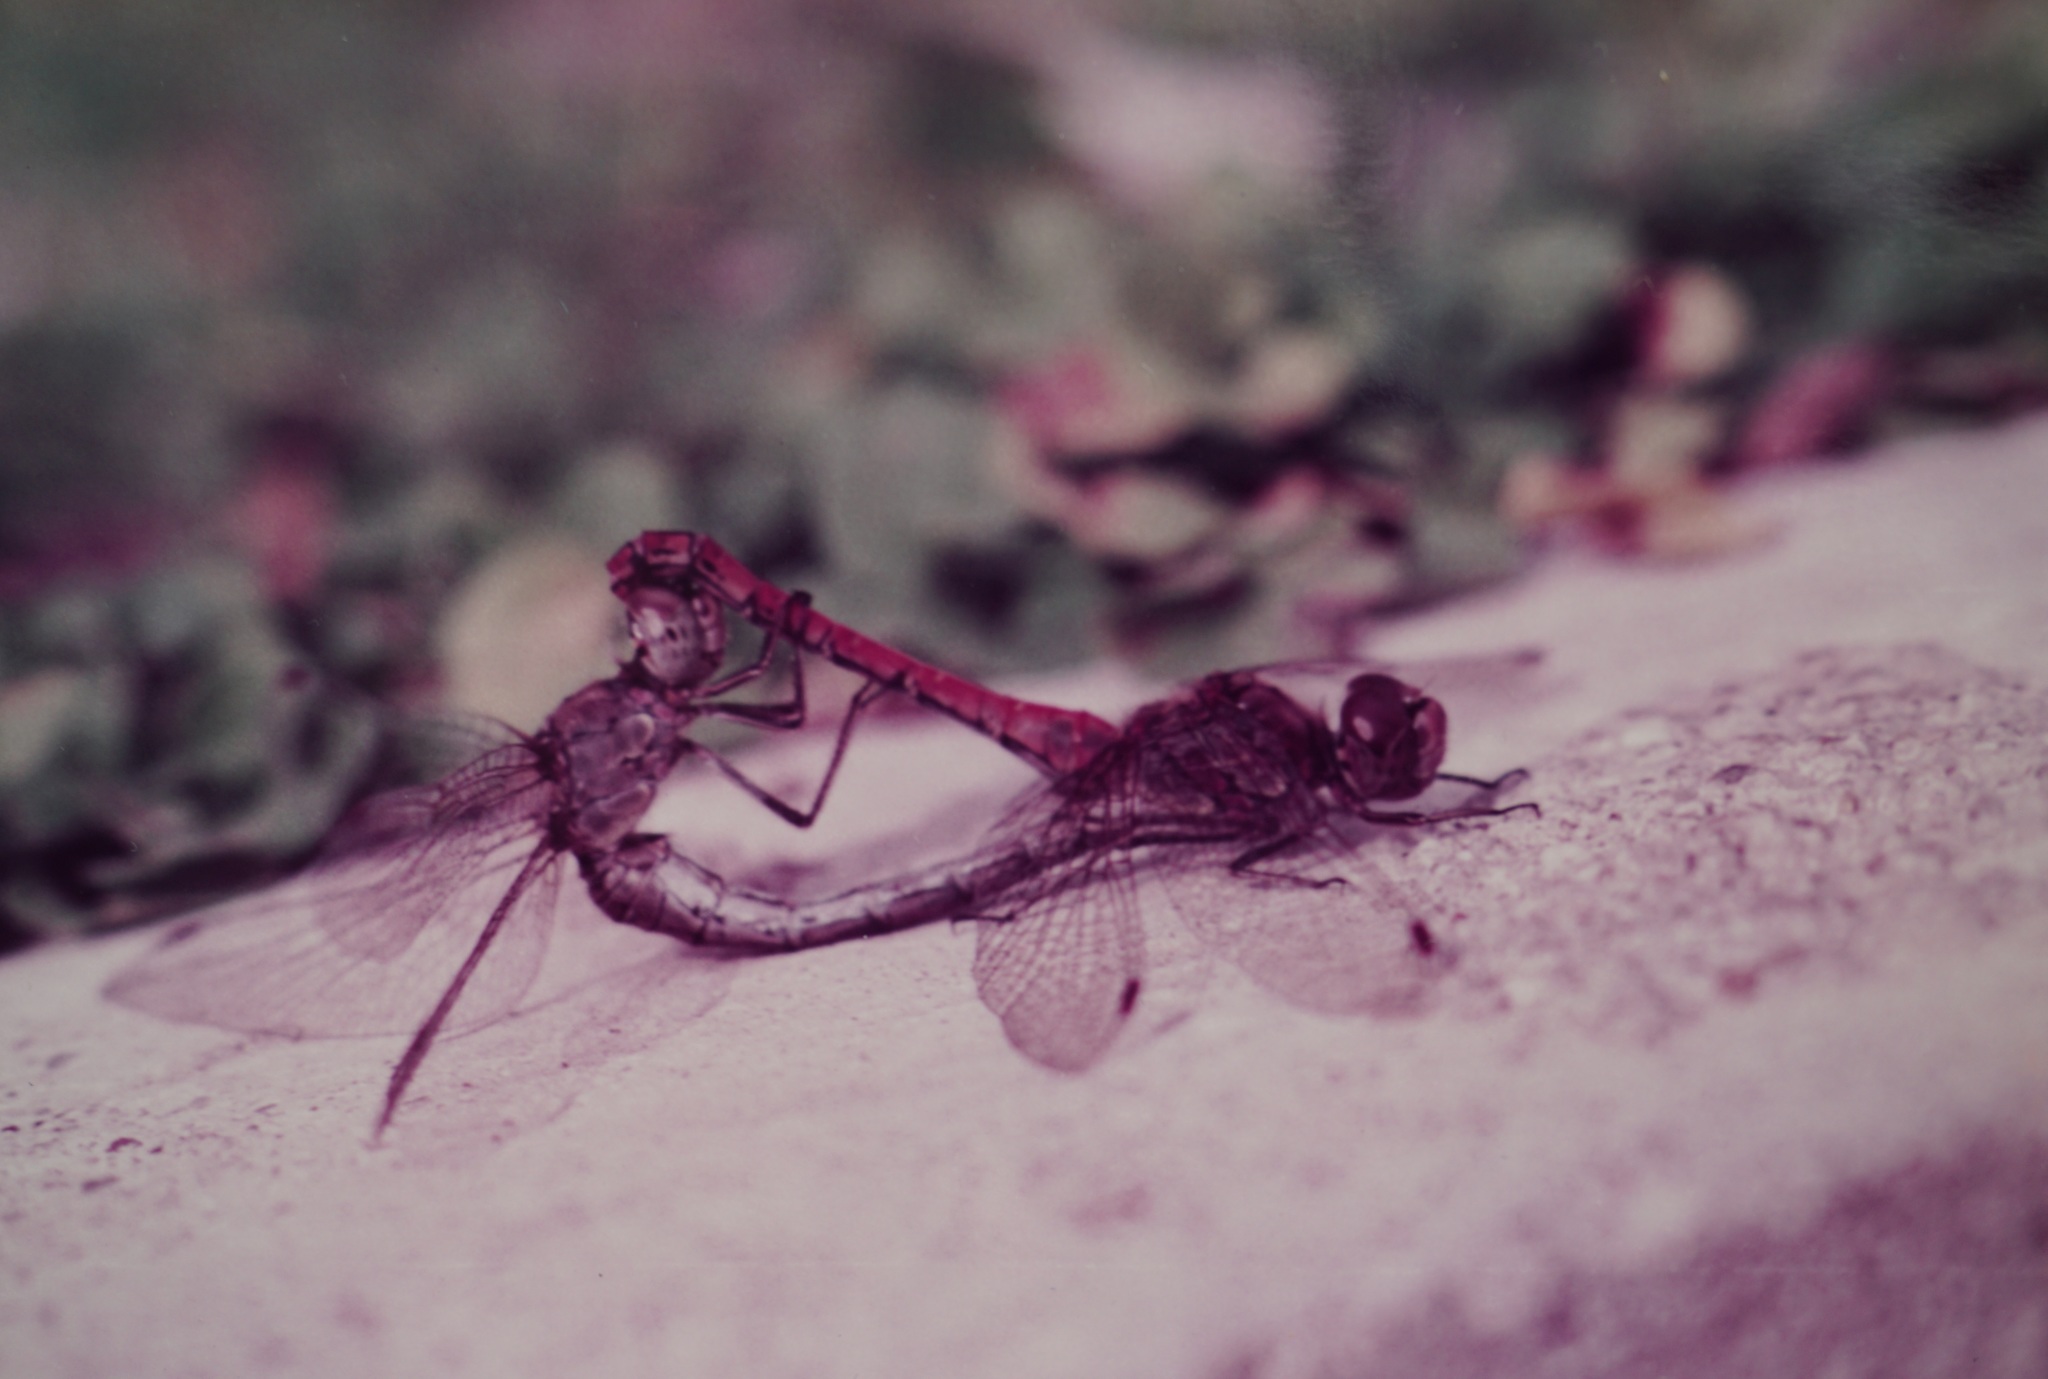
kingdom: Animalia
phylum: Arthropoda
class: Insecta
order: Odonata
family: Libellulidae
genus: Sympetrum
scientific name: Sympetrum striolatum
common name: Common darter
